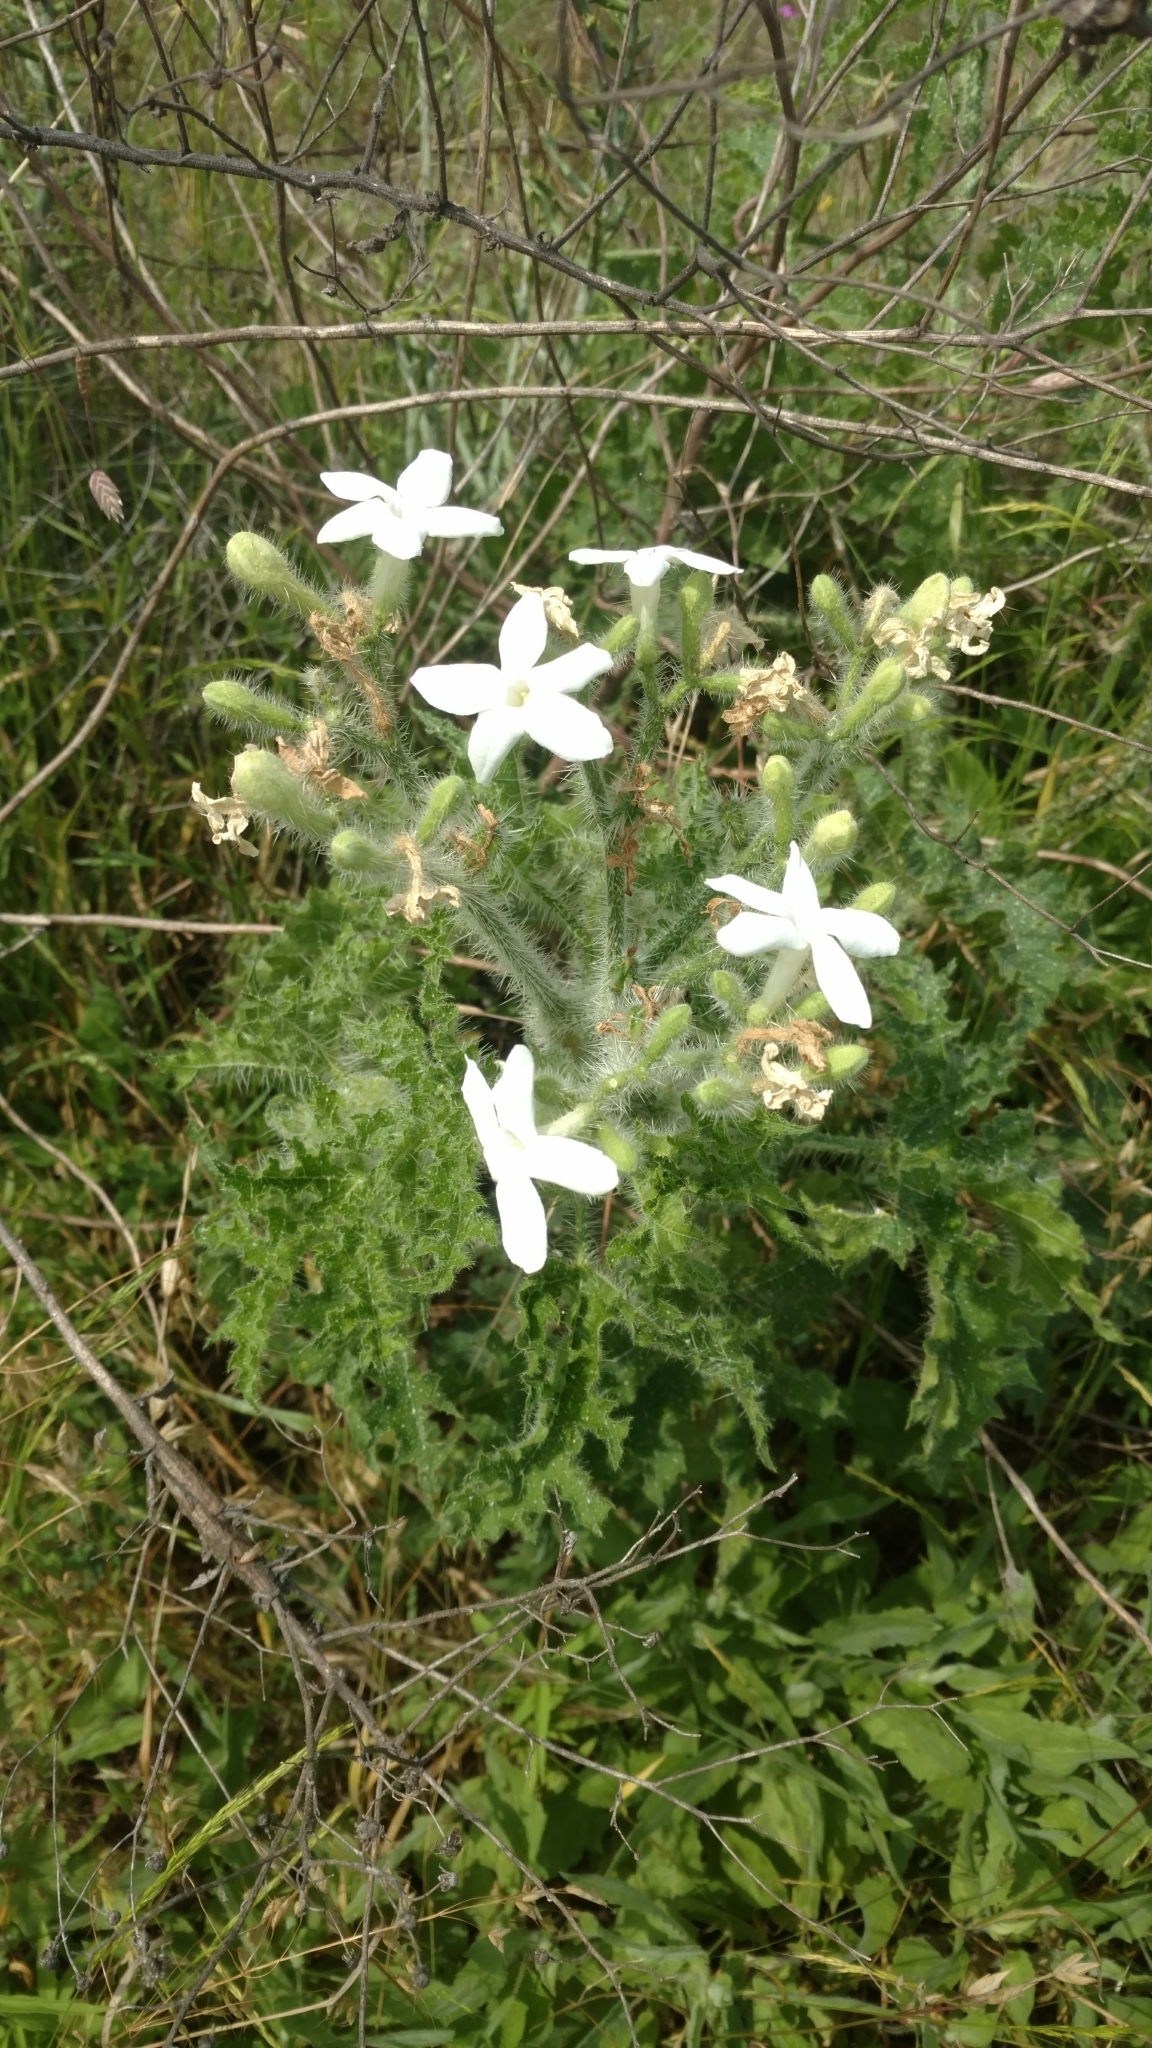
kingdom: Plantae
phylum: Tracheophyta
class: Magnoliopsida
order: Malpighiales
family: Euphorbiaceae
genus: Cnidoscolus
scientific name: Cnidoscolus texanus
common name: Texas bull-nettle
